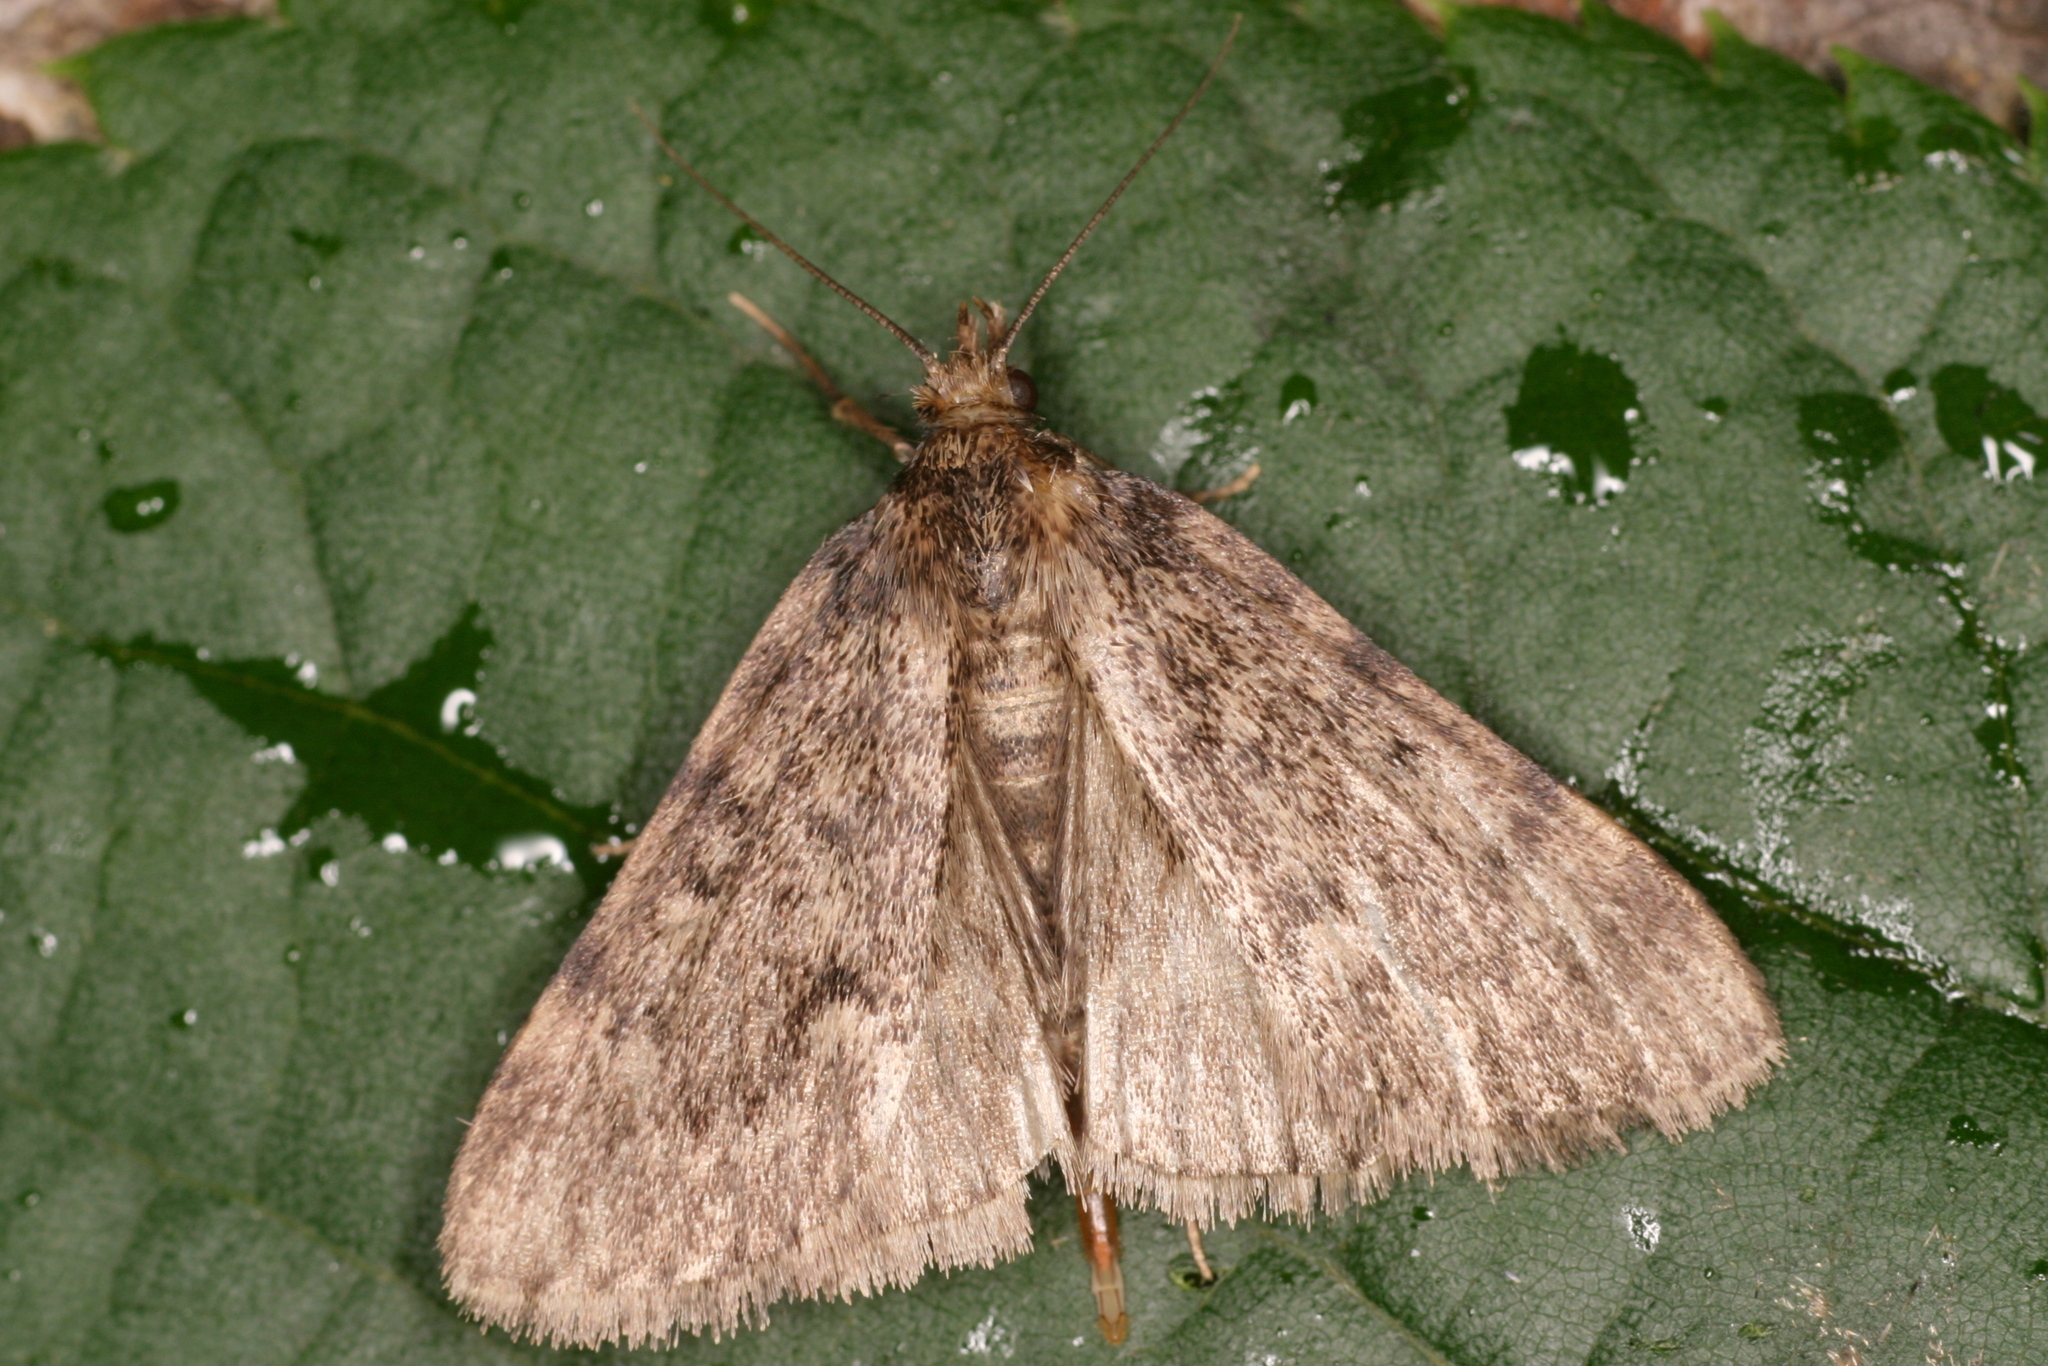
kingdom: Animalia
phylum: Arthropoda
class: Insecta
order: Lepidoptera
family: Pyralidae
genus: Aglossa
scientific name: Aglossa pinguinalis
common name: Large tabby
